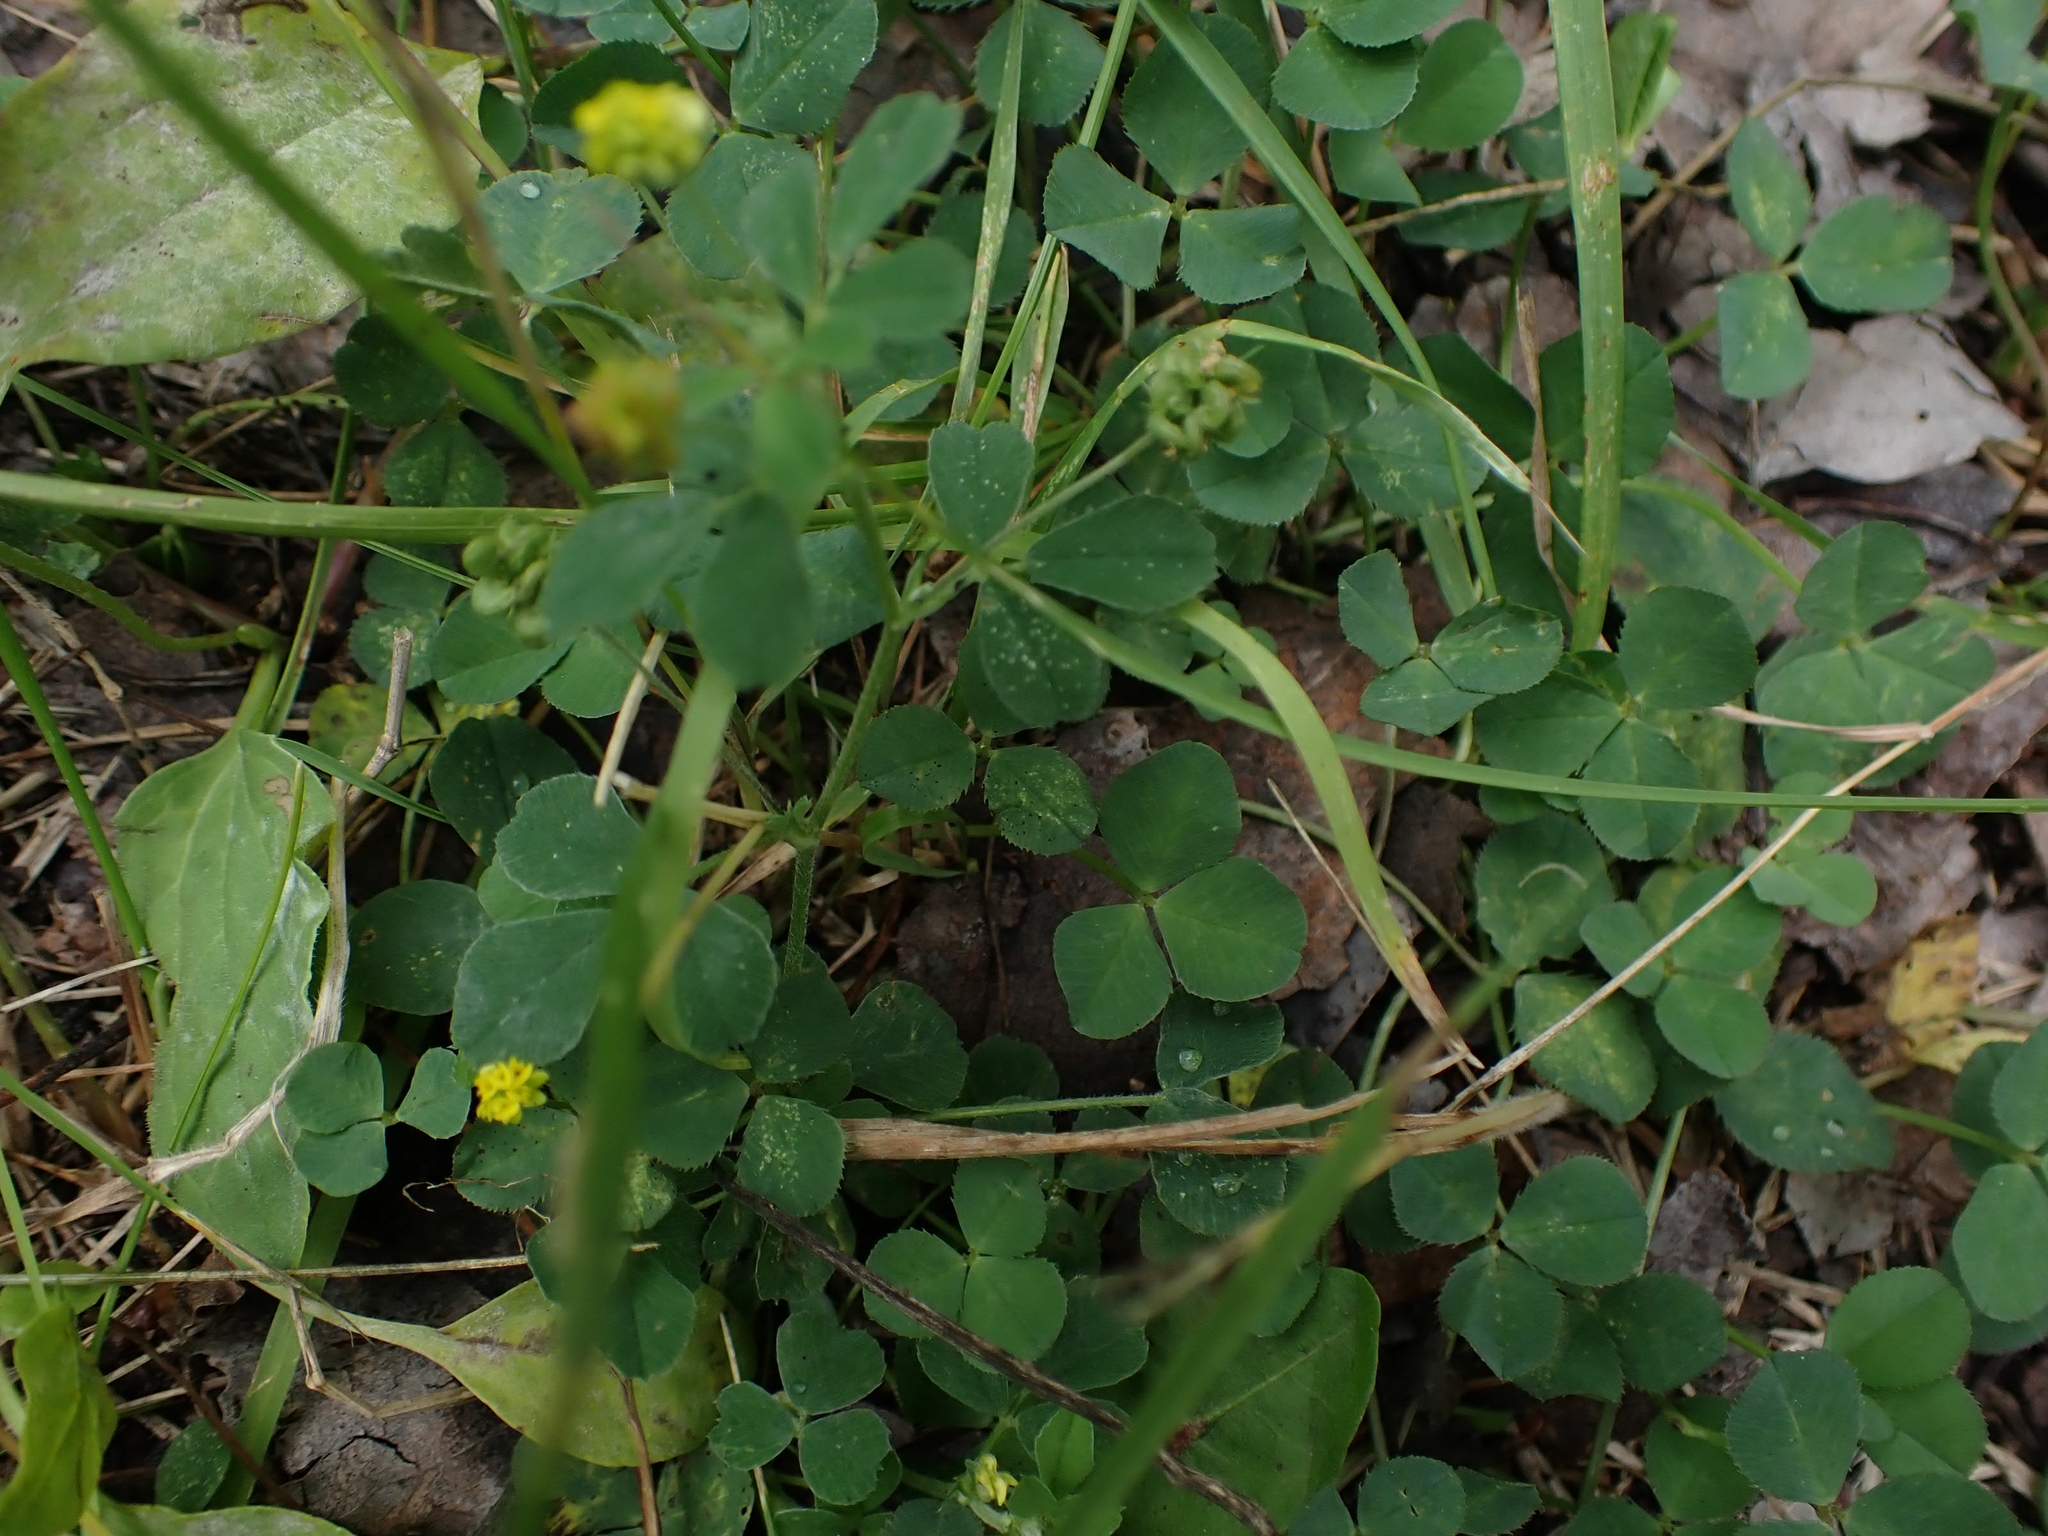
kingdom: Plantae
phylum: Tracheophyta
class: Magnoliopsida
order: Fabales
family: Fabaceae
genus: Medicago
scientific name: Medicago lupulina
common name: Black medick
